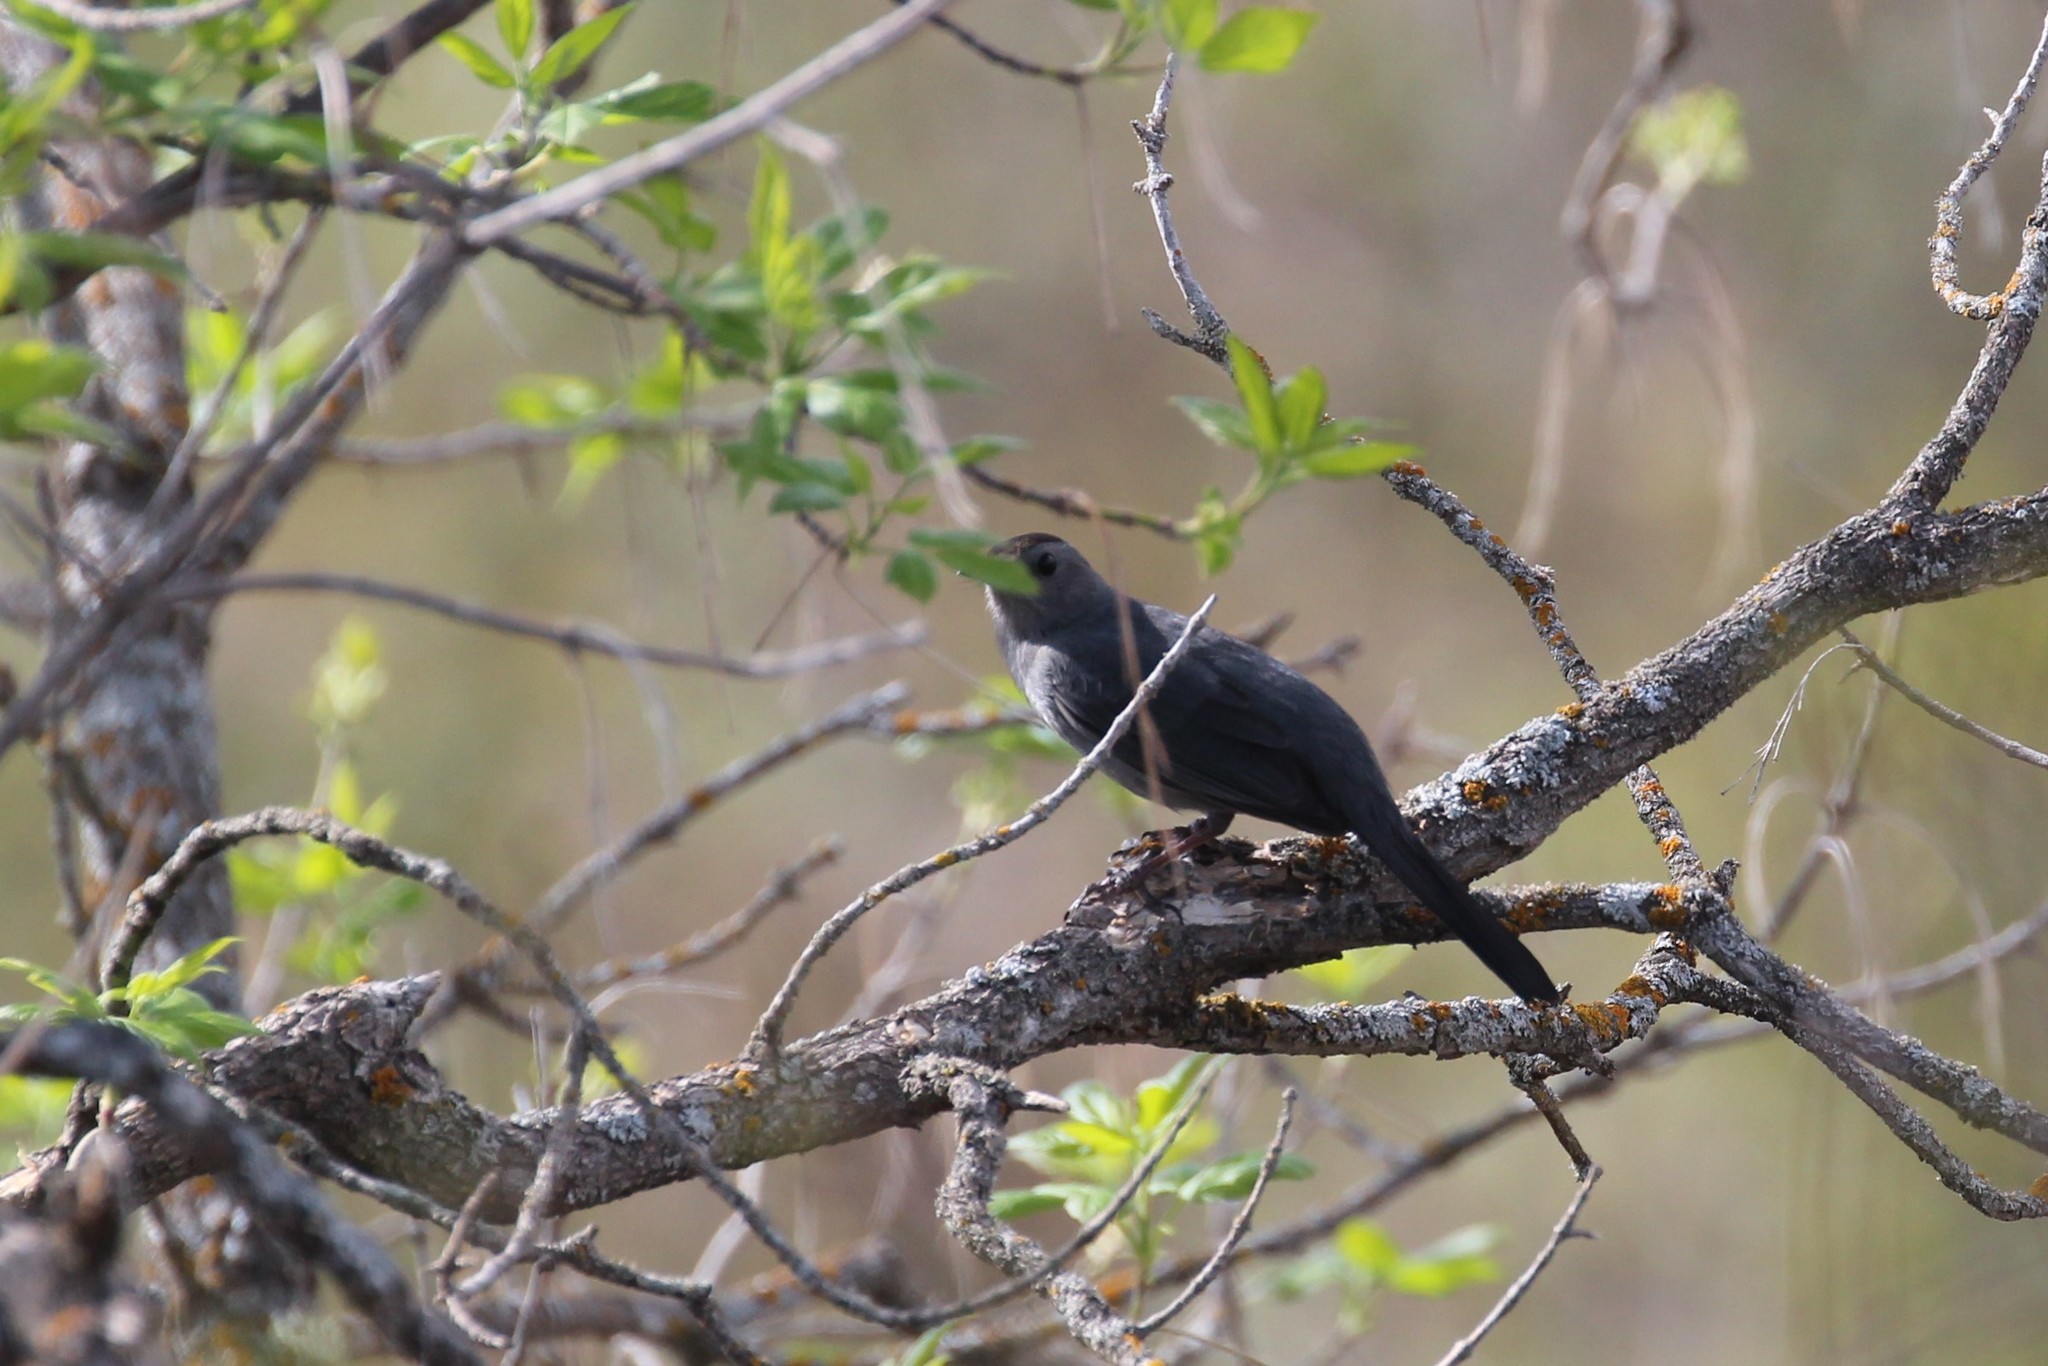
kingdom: Animalia
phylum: Chordata
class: Aves
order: Passeriformes
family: Mimidae
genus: Dumetella
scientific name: Dumetella carolinensis
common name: Gray catbird
